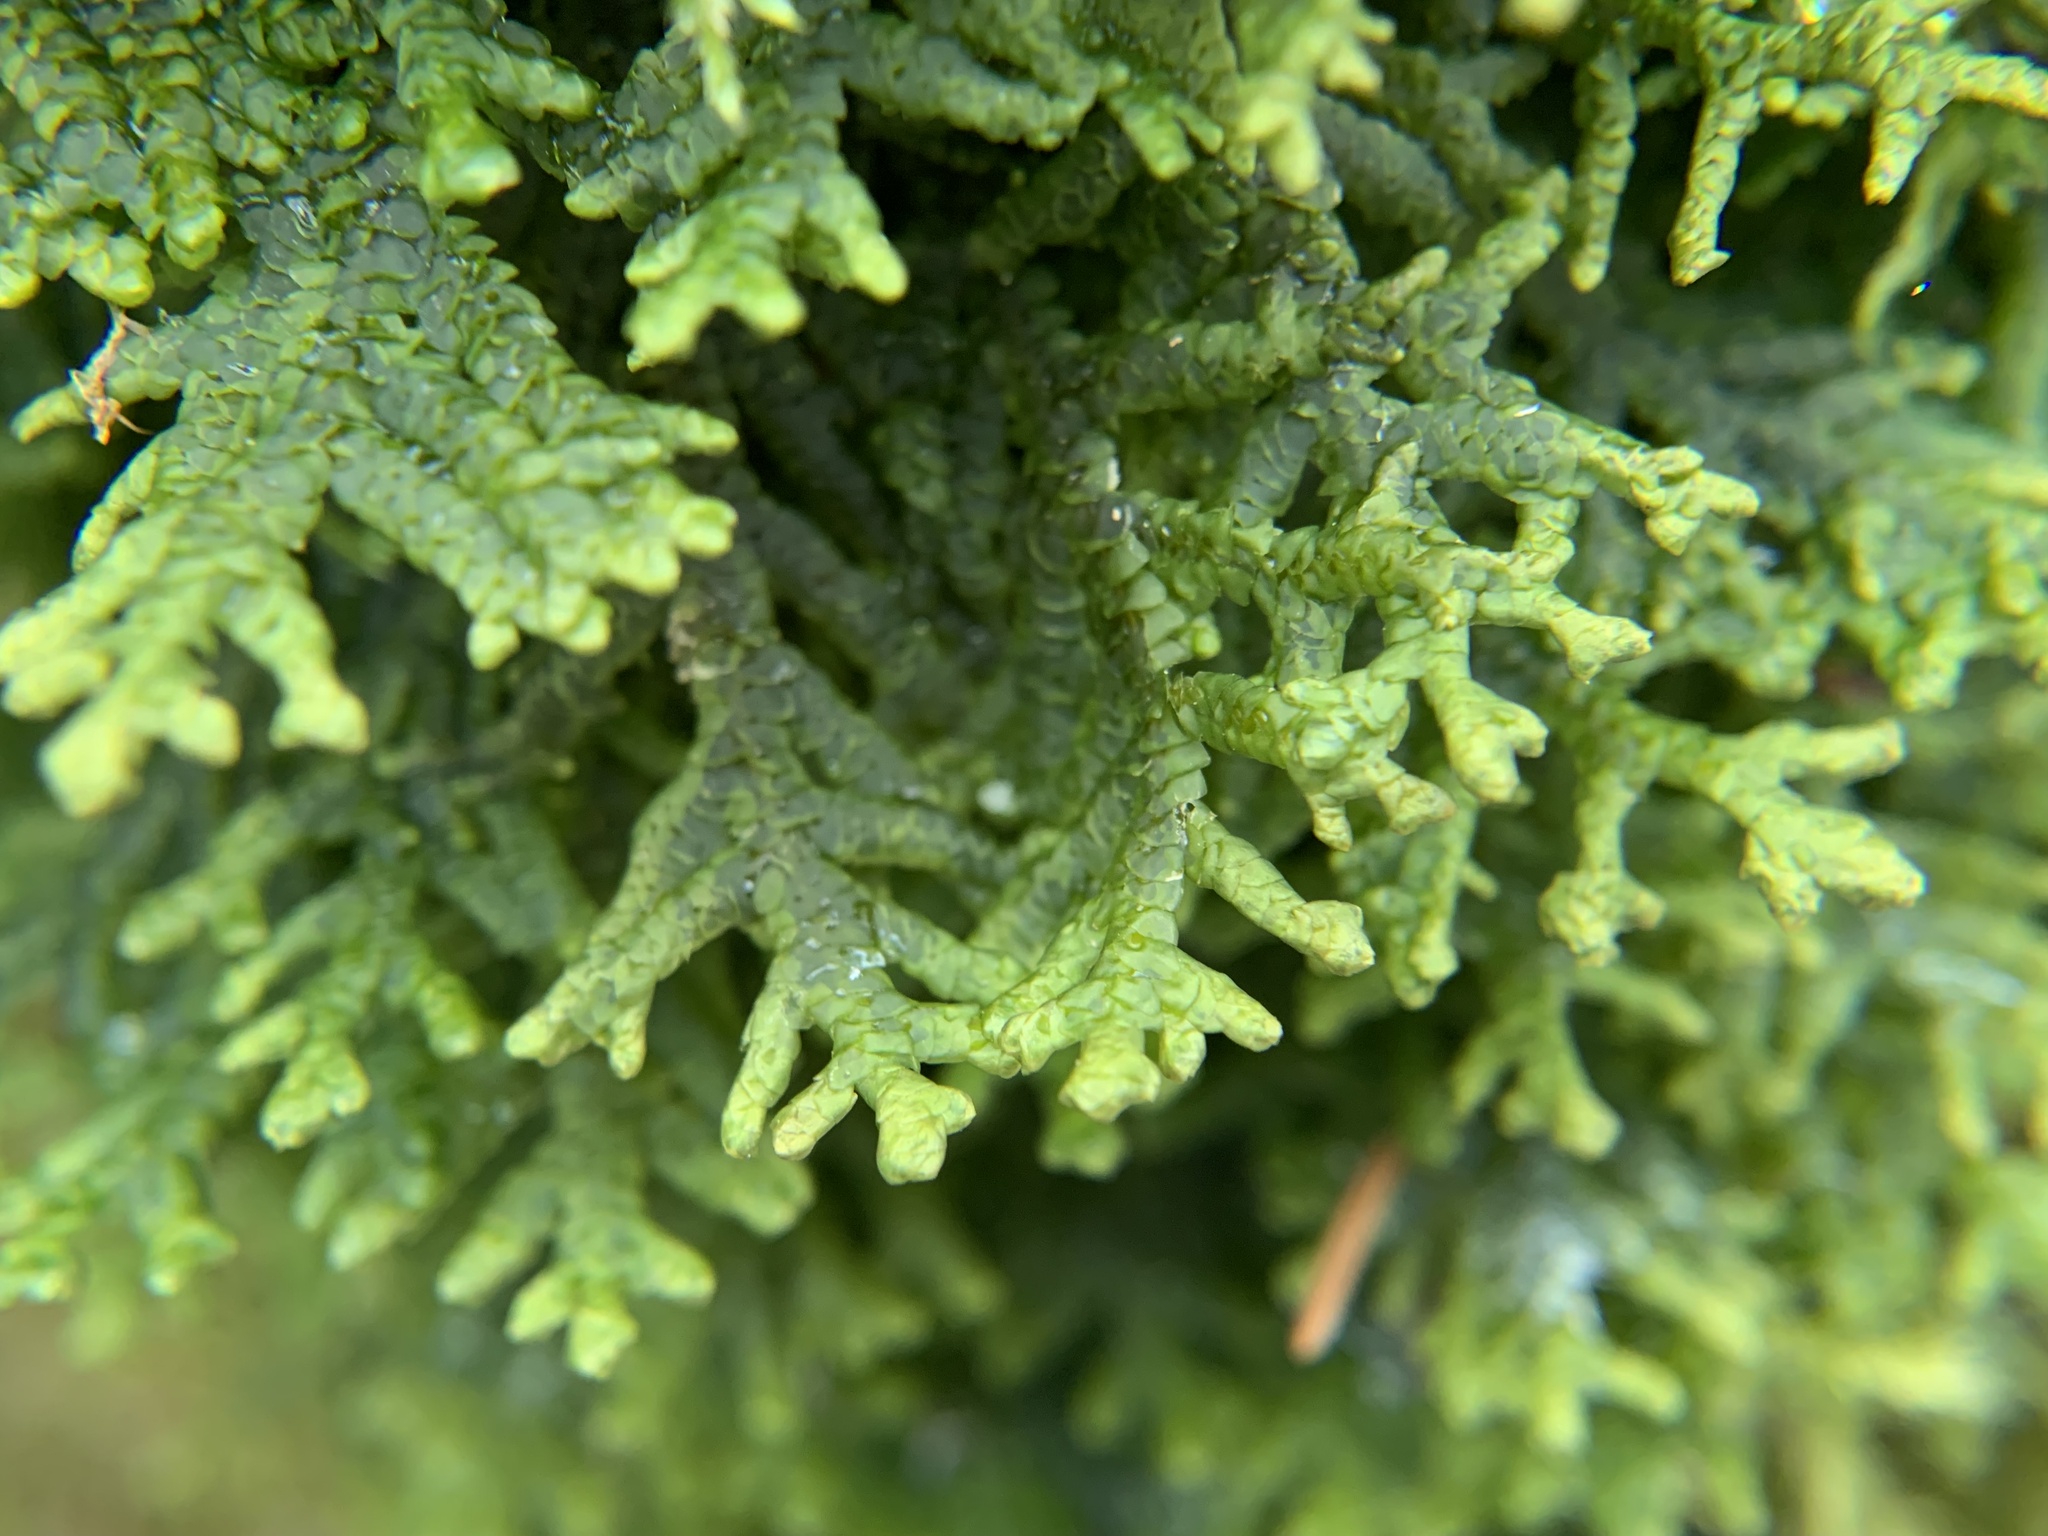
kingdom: Plantae
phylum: Marchantiophyta
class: Jungermanniopsida
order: Porellales
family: Porellaceae
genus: Porella
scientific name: Porella platyphylla
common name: Wall scalewort
